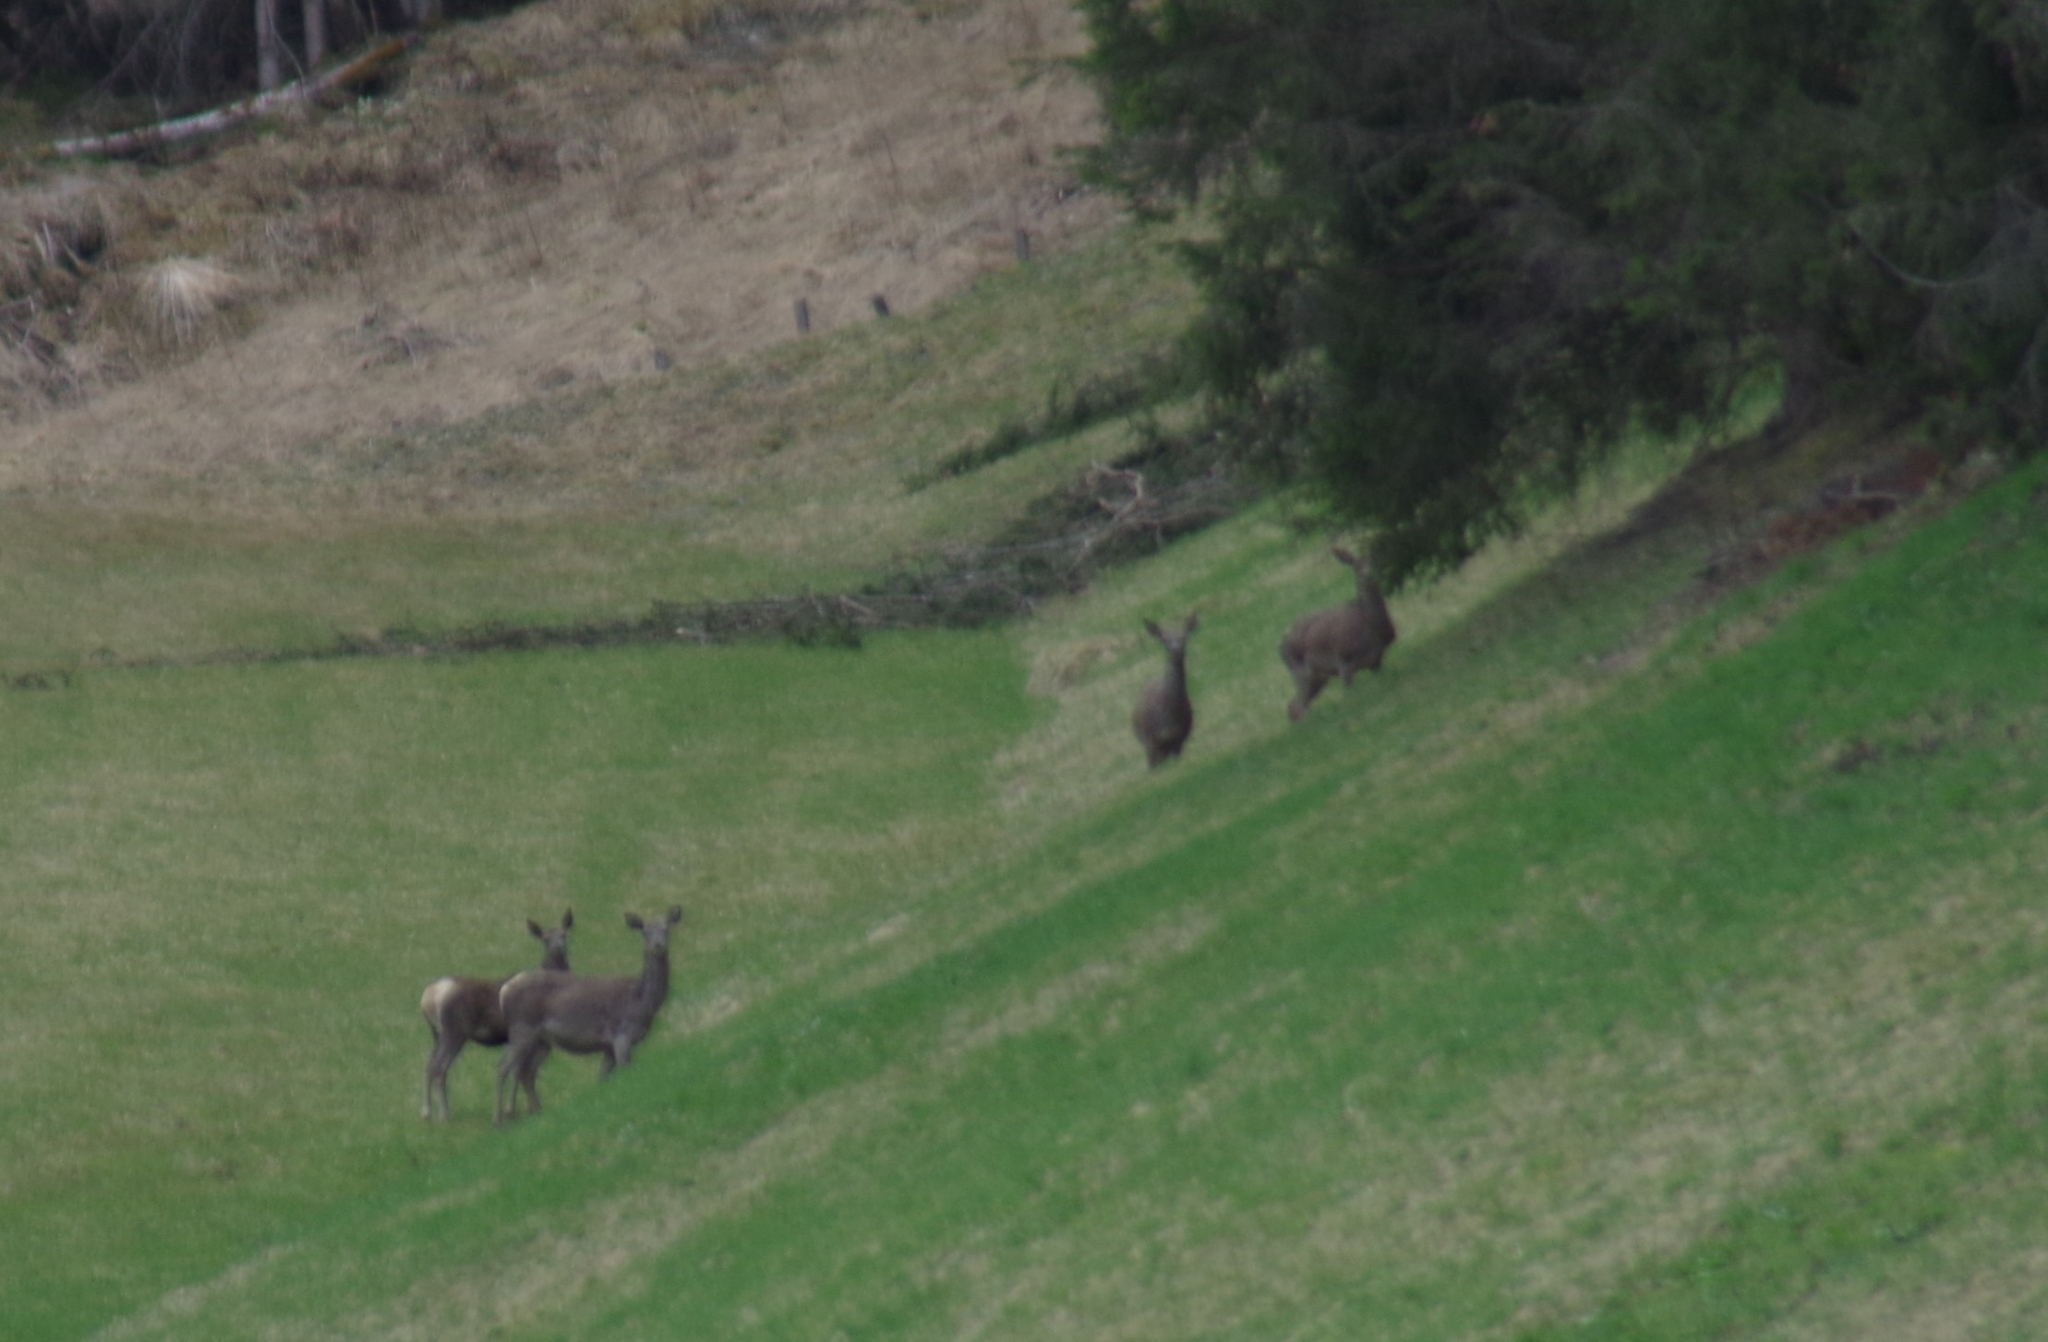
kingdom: Animalia
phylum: Chordata
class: Mammalia
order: Artiodactyla
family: Cervidae
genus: Cervus
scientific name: Cervus elaphus
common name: Red deer
